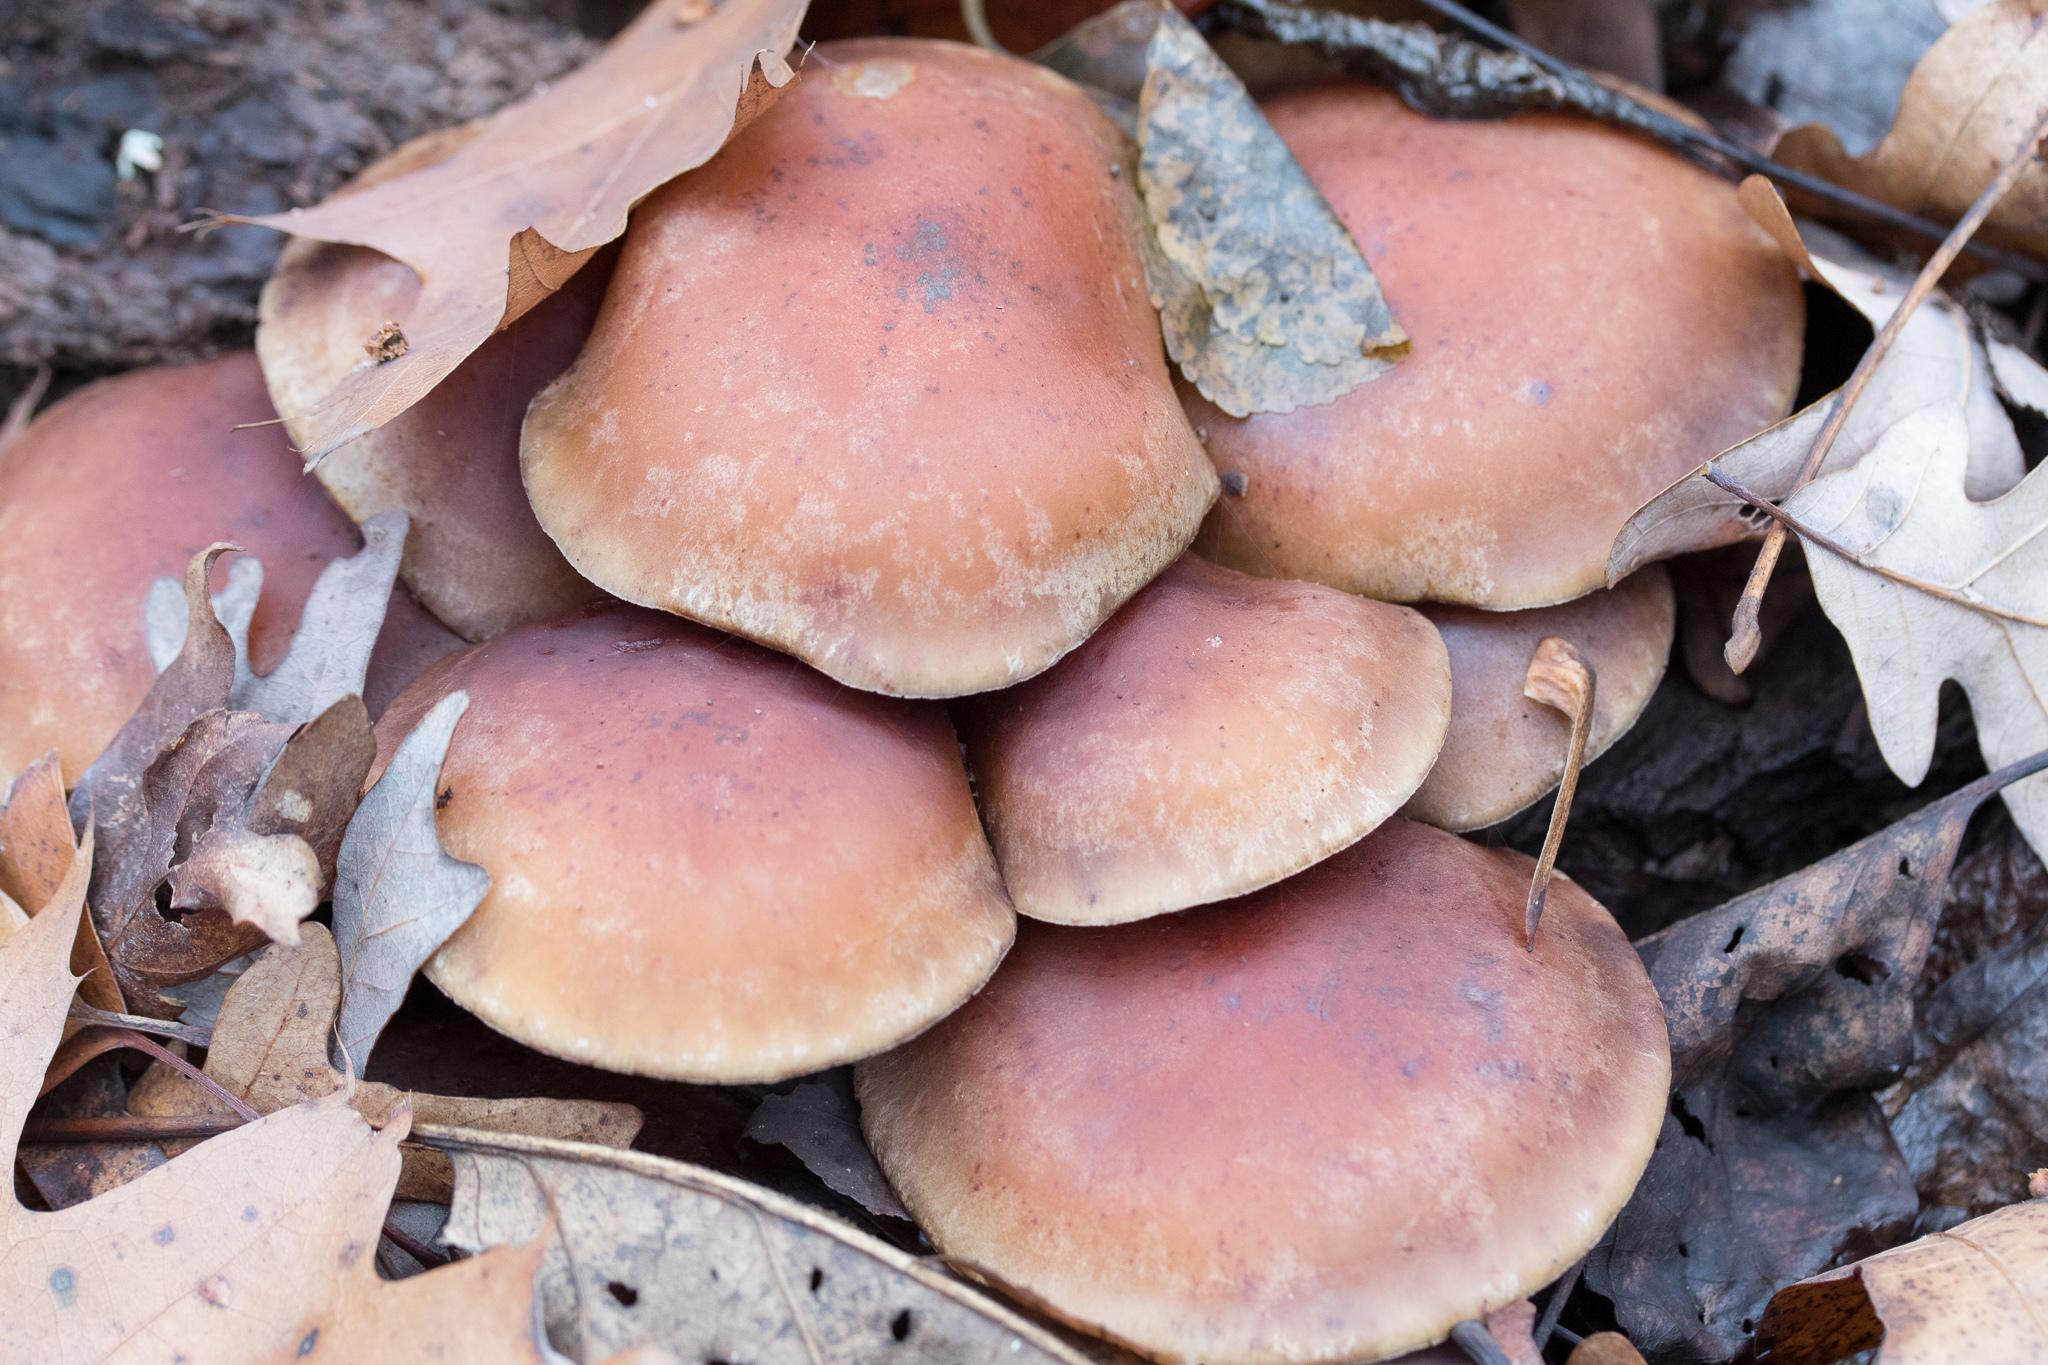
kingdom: Fungi
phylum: Basidiomycota
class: Agaricomycetes
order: Agaricales
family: Strophariaceae
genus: Hypholoma
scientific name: Hypholoma lateritium
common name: Brick caps
